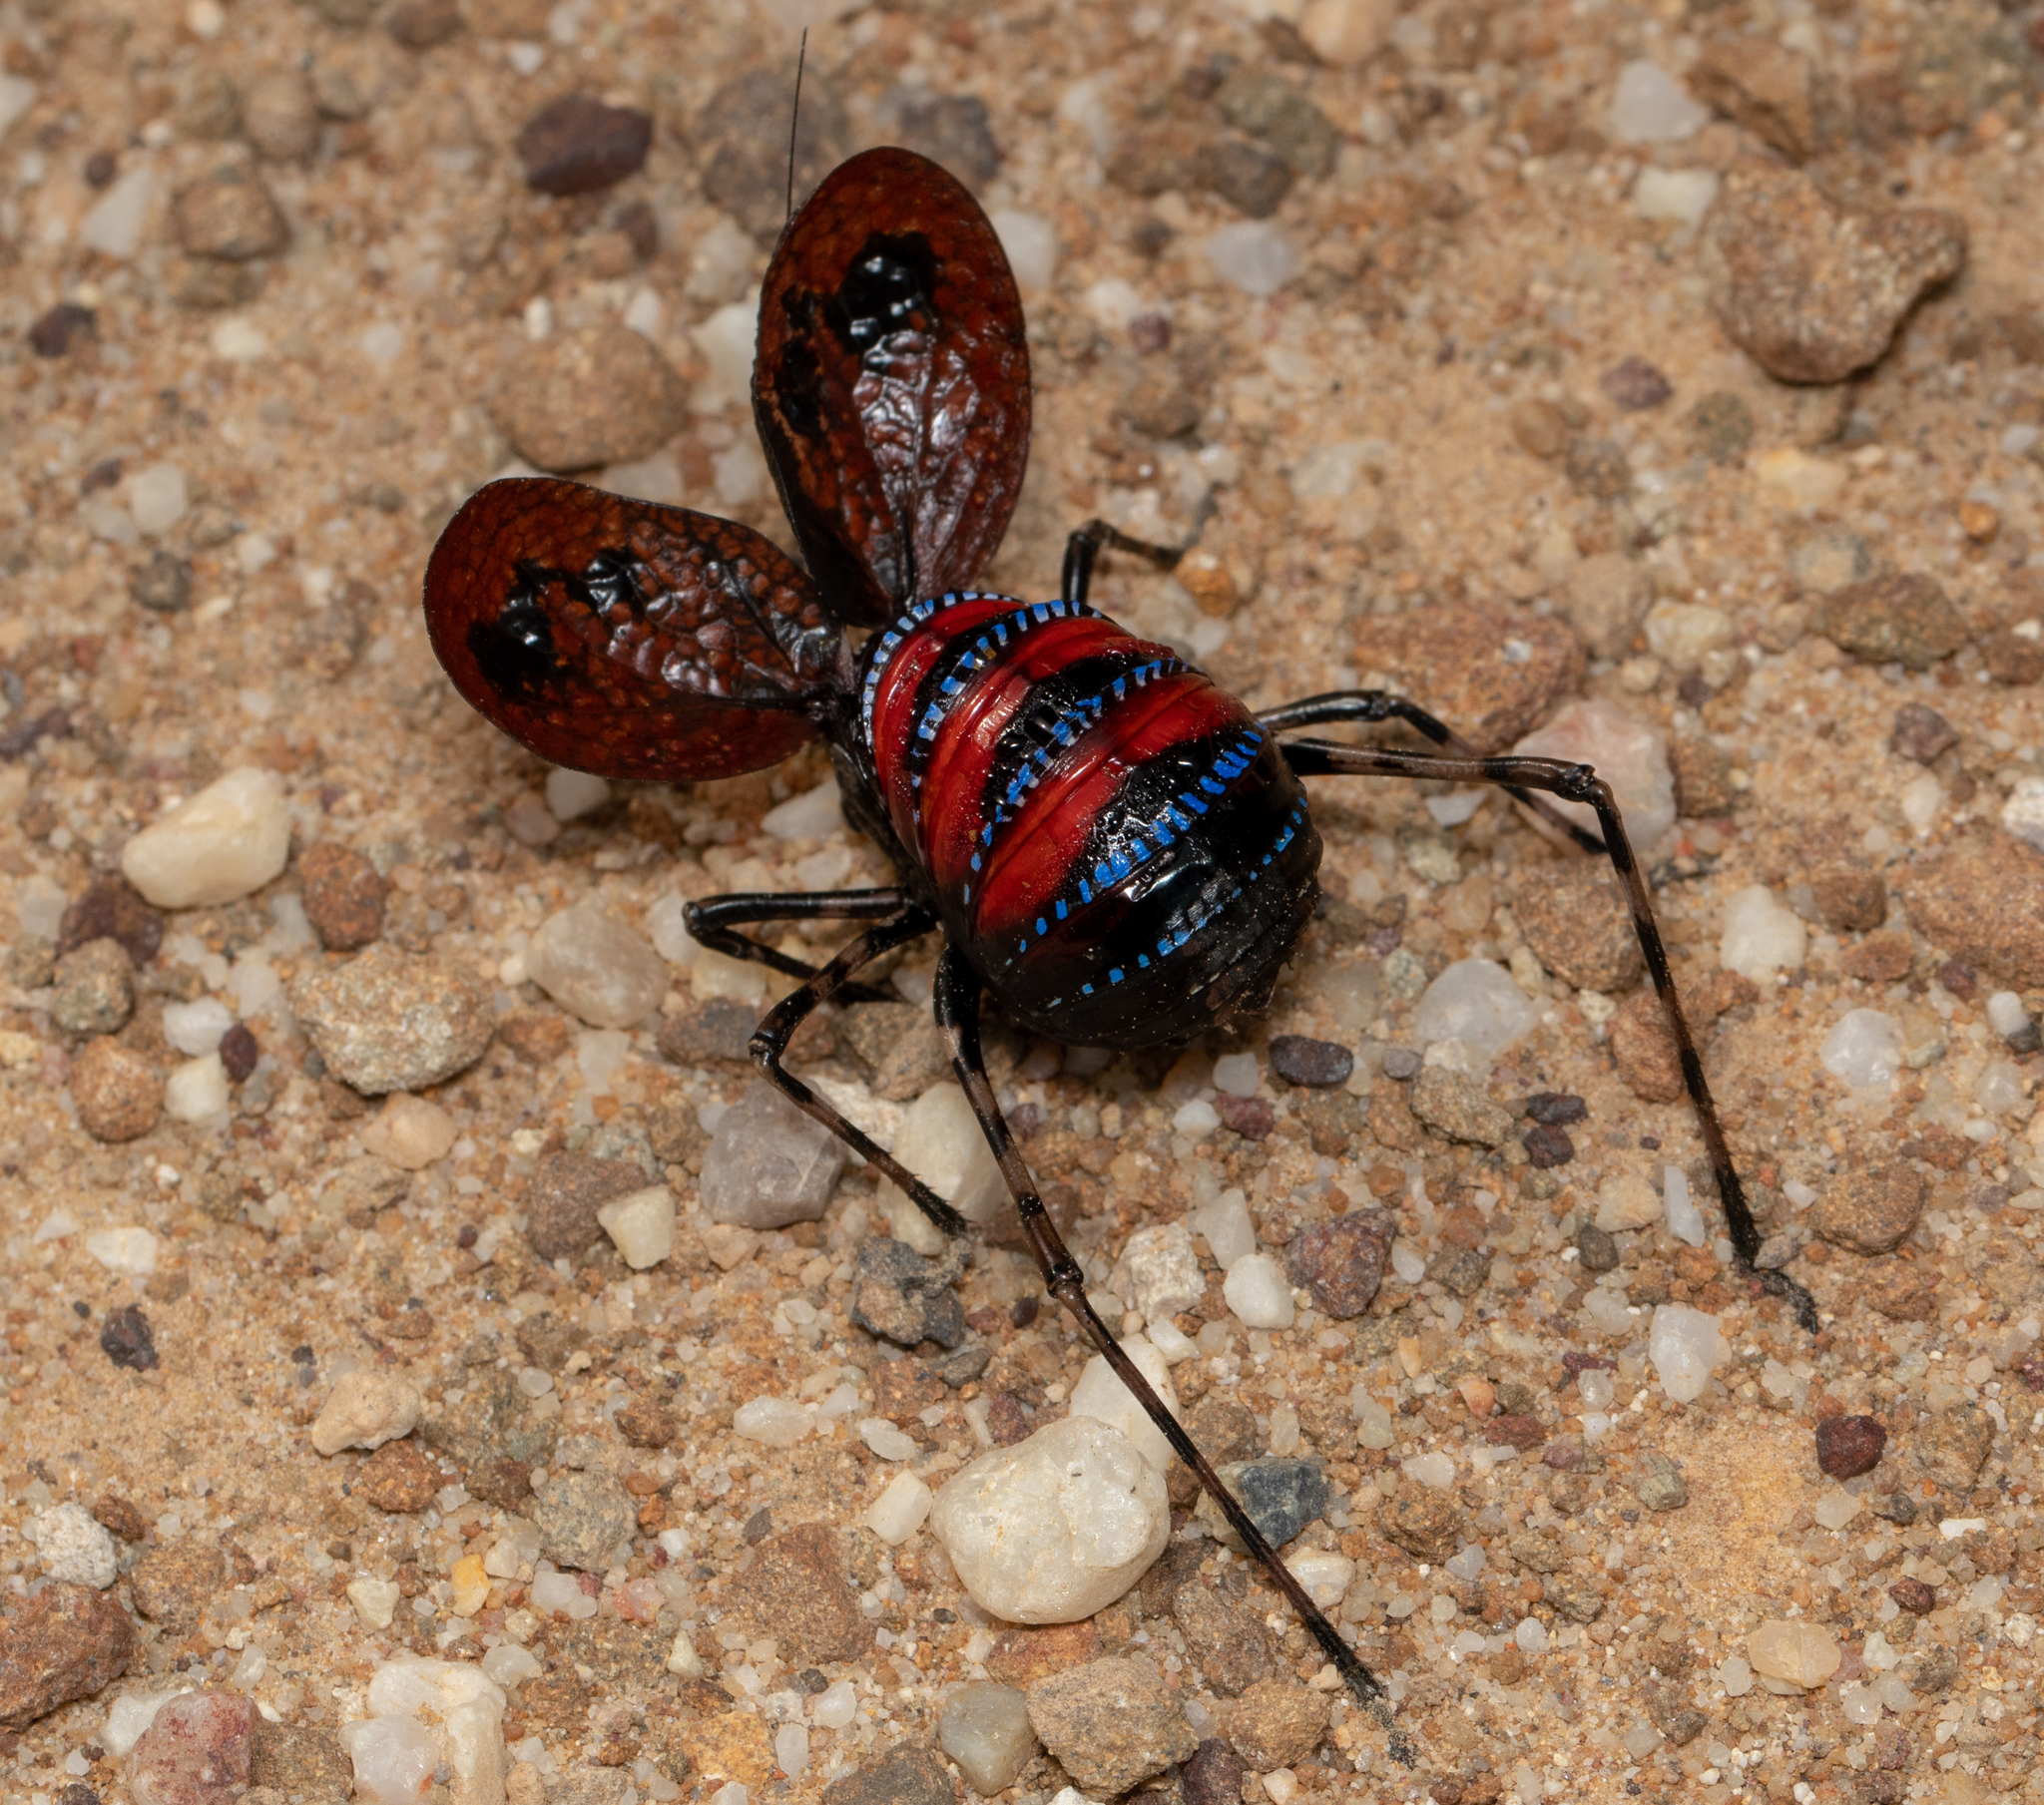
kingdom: Animalia
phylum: Arthropoda
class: Insecta
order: Orthoptera
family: Tettigoniidae
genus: Acripeza
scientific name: Acripeza reticulata
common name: Mountain katydid
